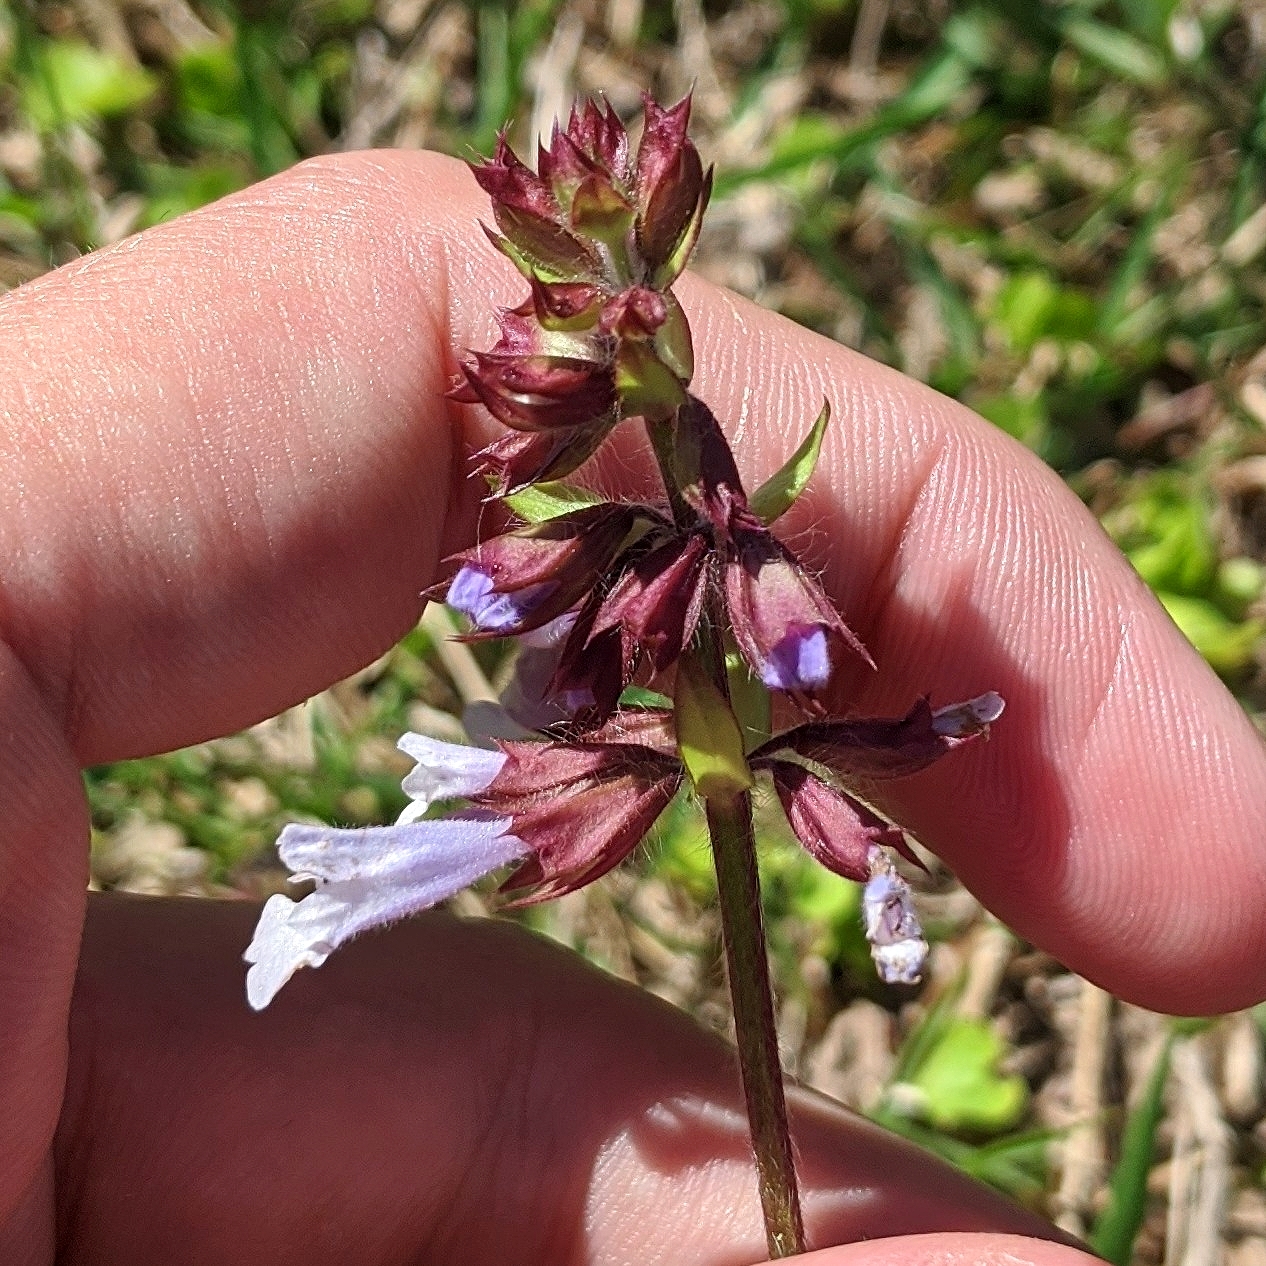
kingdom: Plantae
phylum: Tracheophyta
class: Magnoliopsida
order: Lamiales
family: Lamiaceae
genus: Salvia
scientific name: Salvia lyrata
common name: Cancerweed
